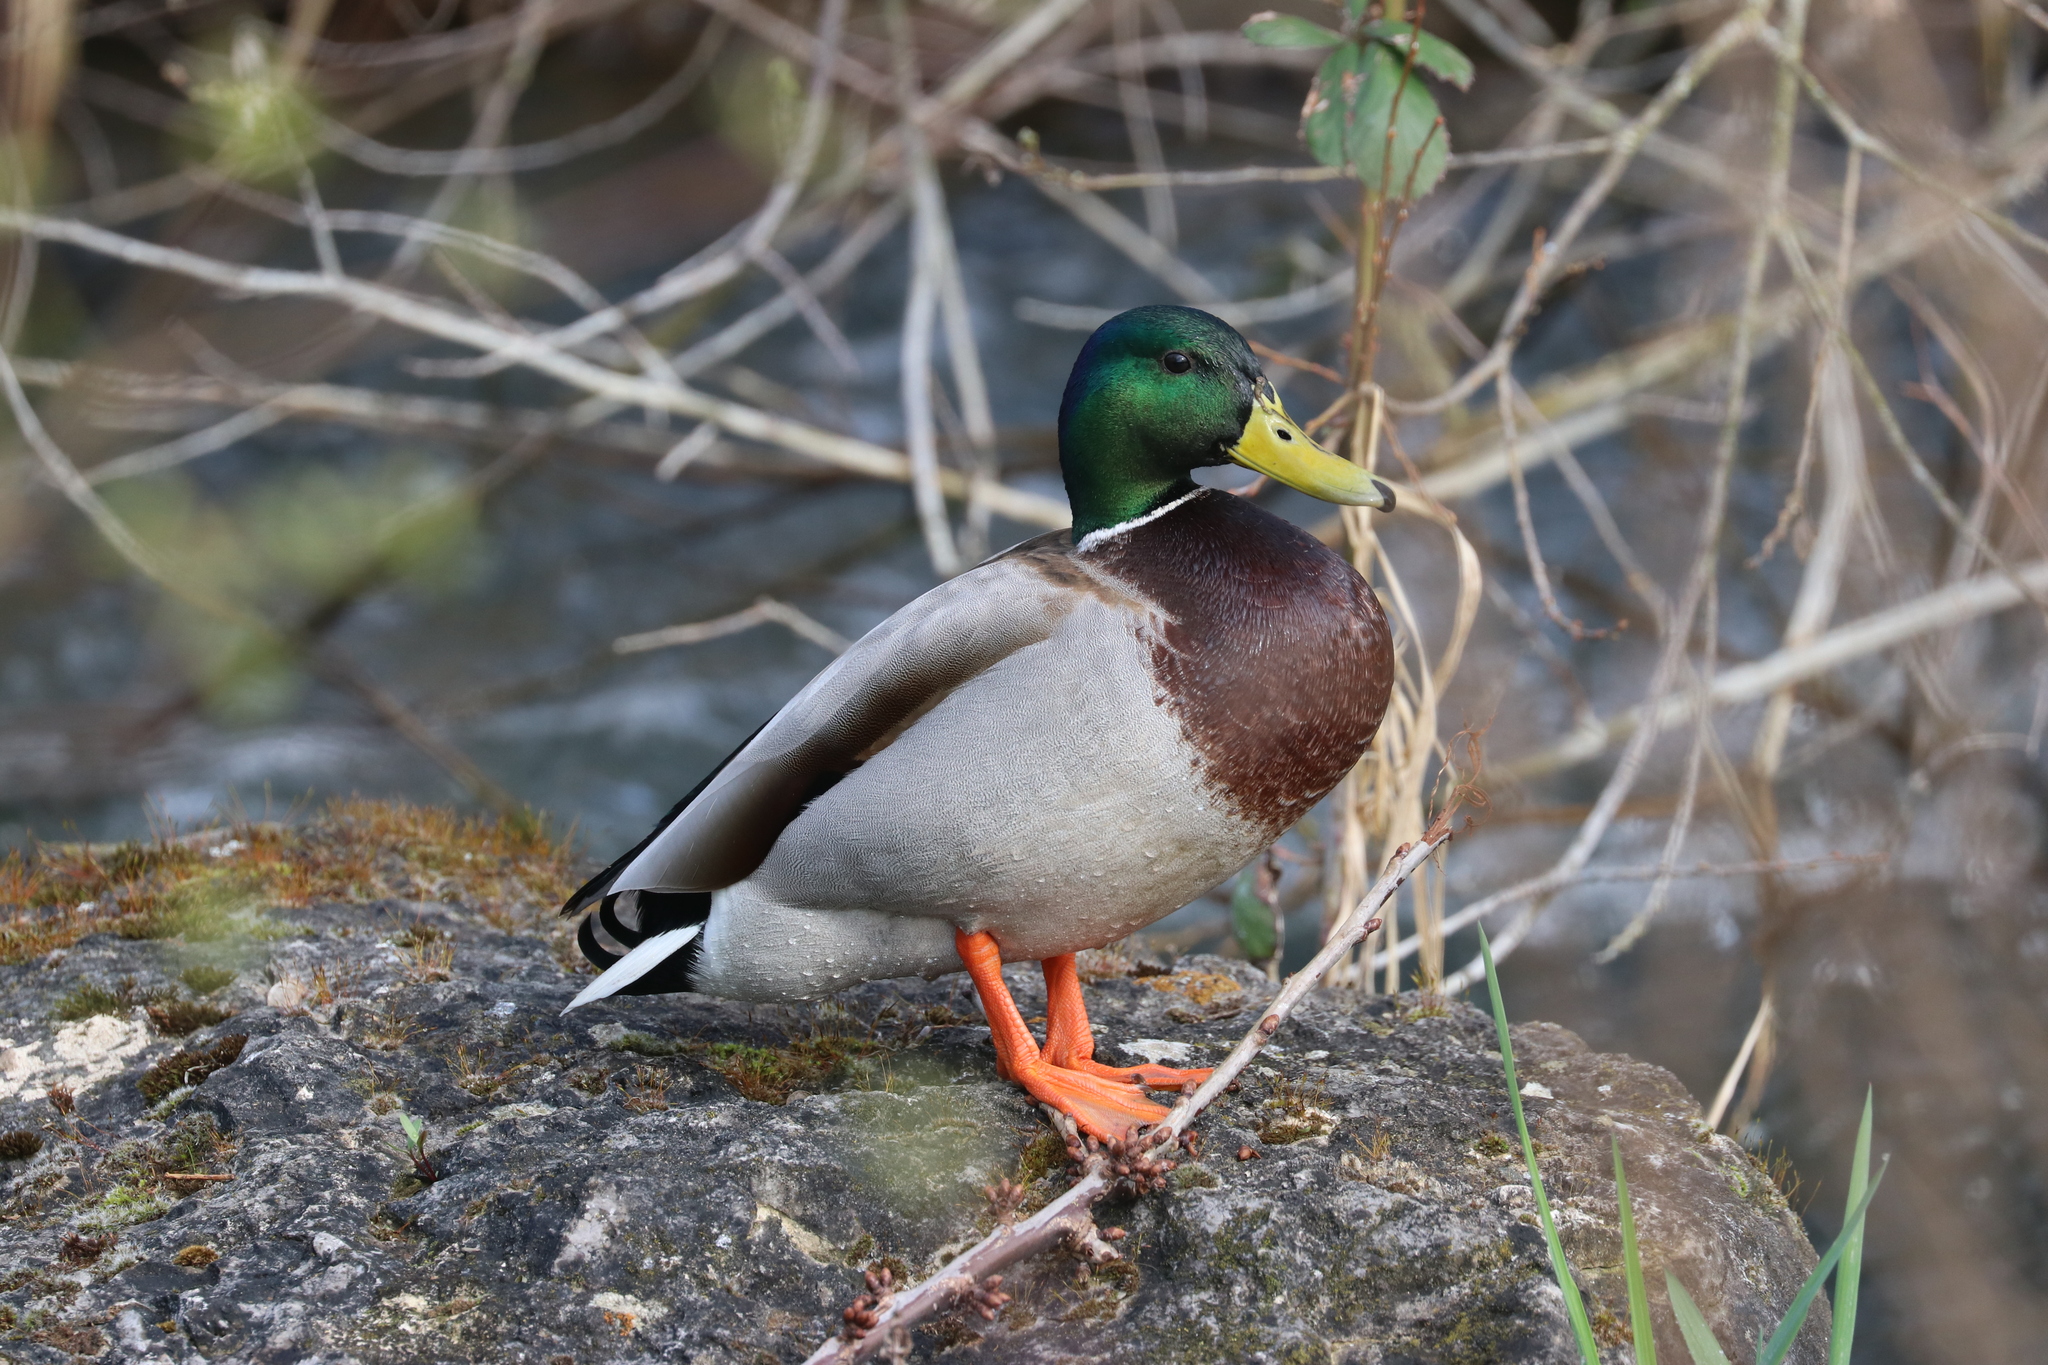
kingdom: Animalia
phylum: Chordata
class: Aves
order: Anseriformes
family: Anatidae
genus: Anas
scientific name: Anas platyrhynchos
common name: Mallard
